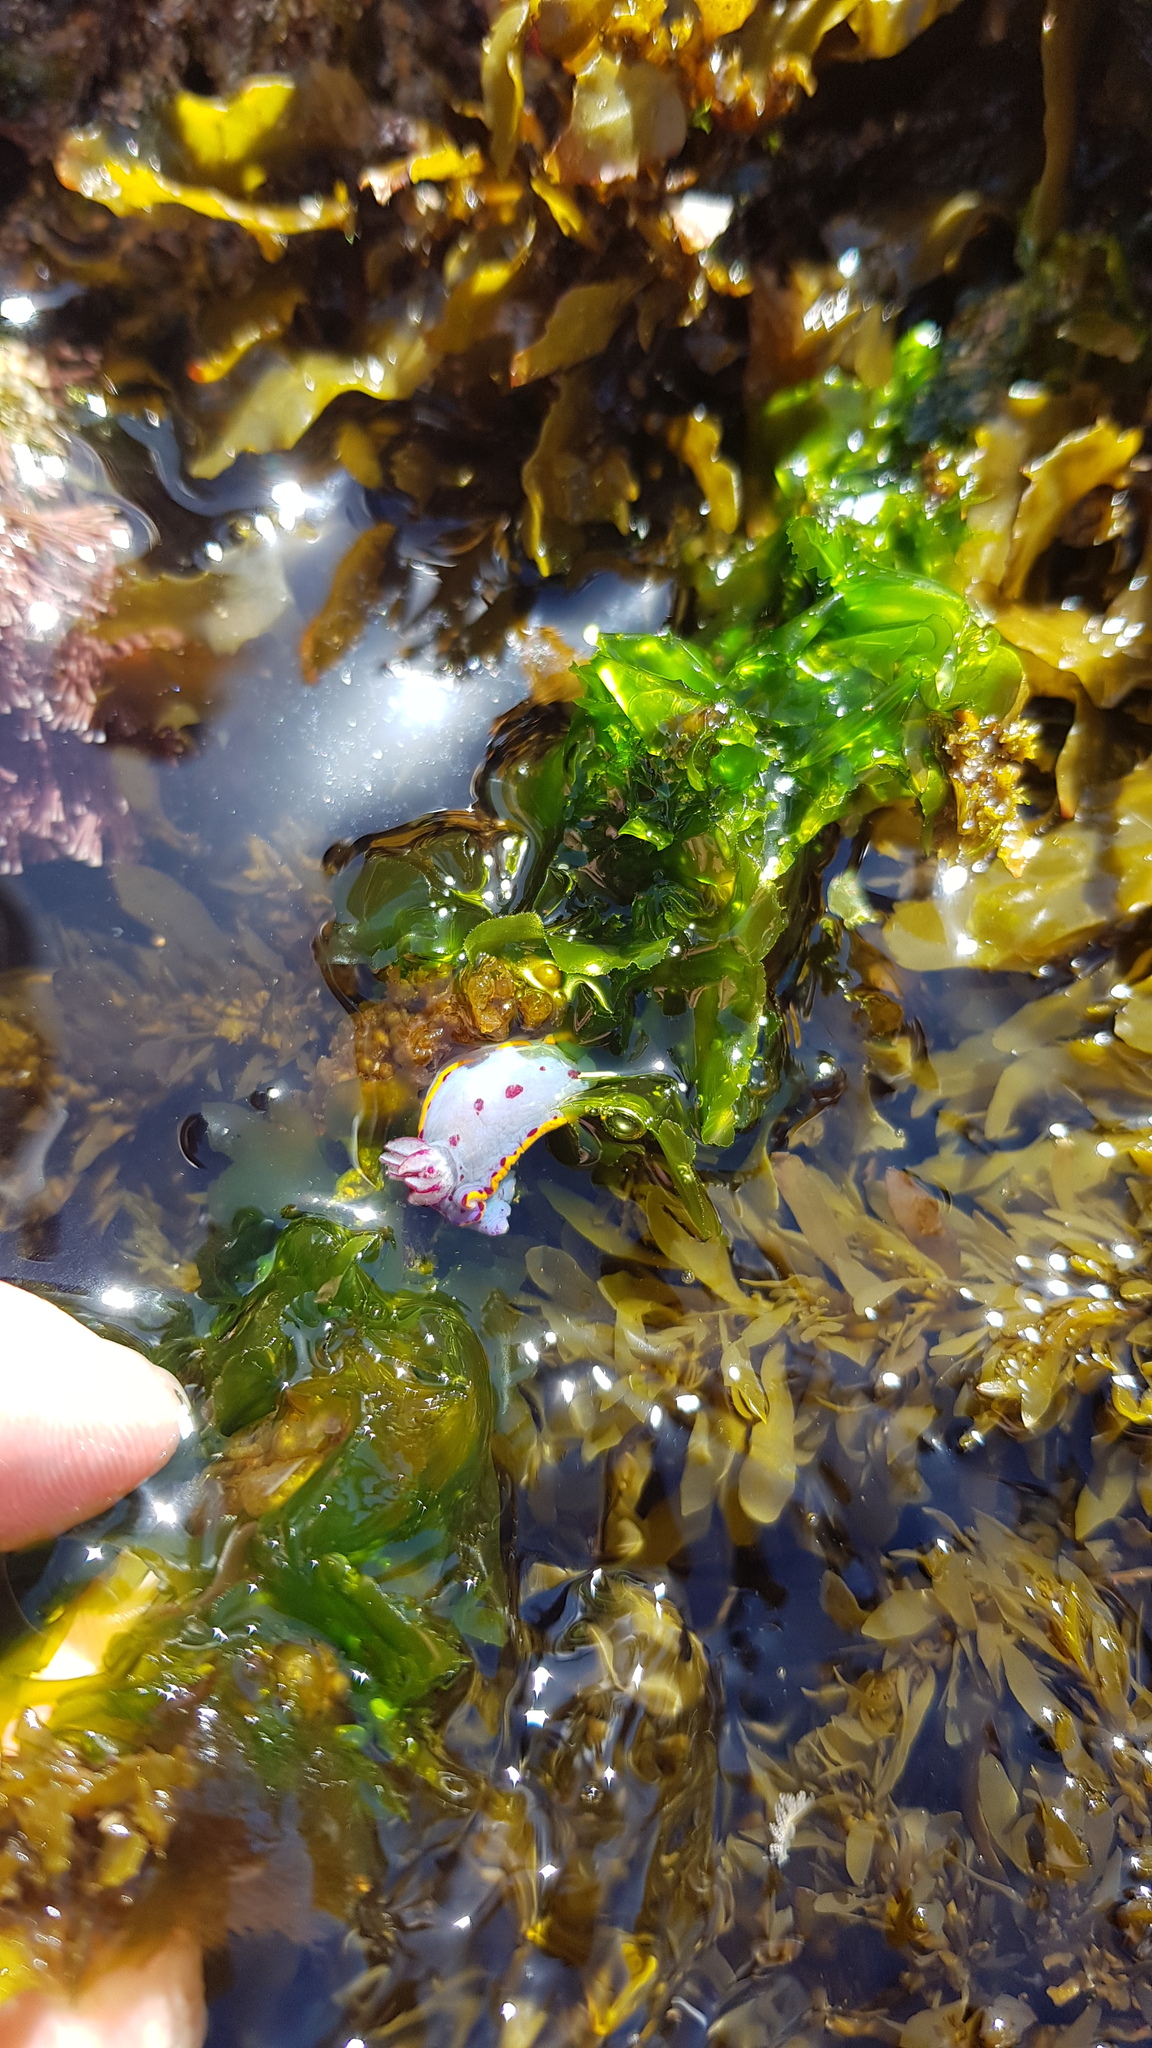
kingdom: Animalia
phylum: Mollusca
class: Gastropoda
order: Nudibranchia
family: Chromodorididae
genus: Hypselodoris
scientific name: Hypselodoris bennetti
